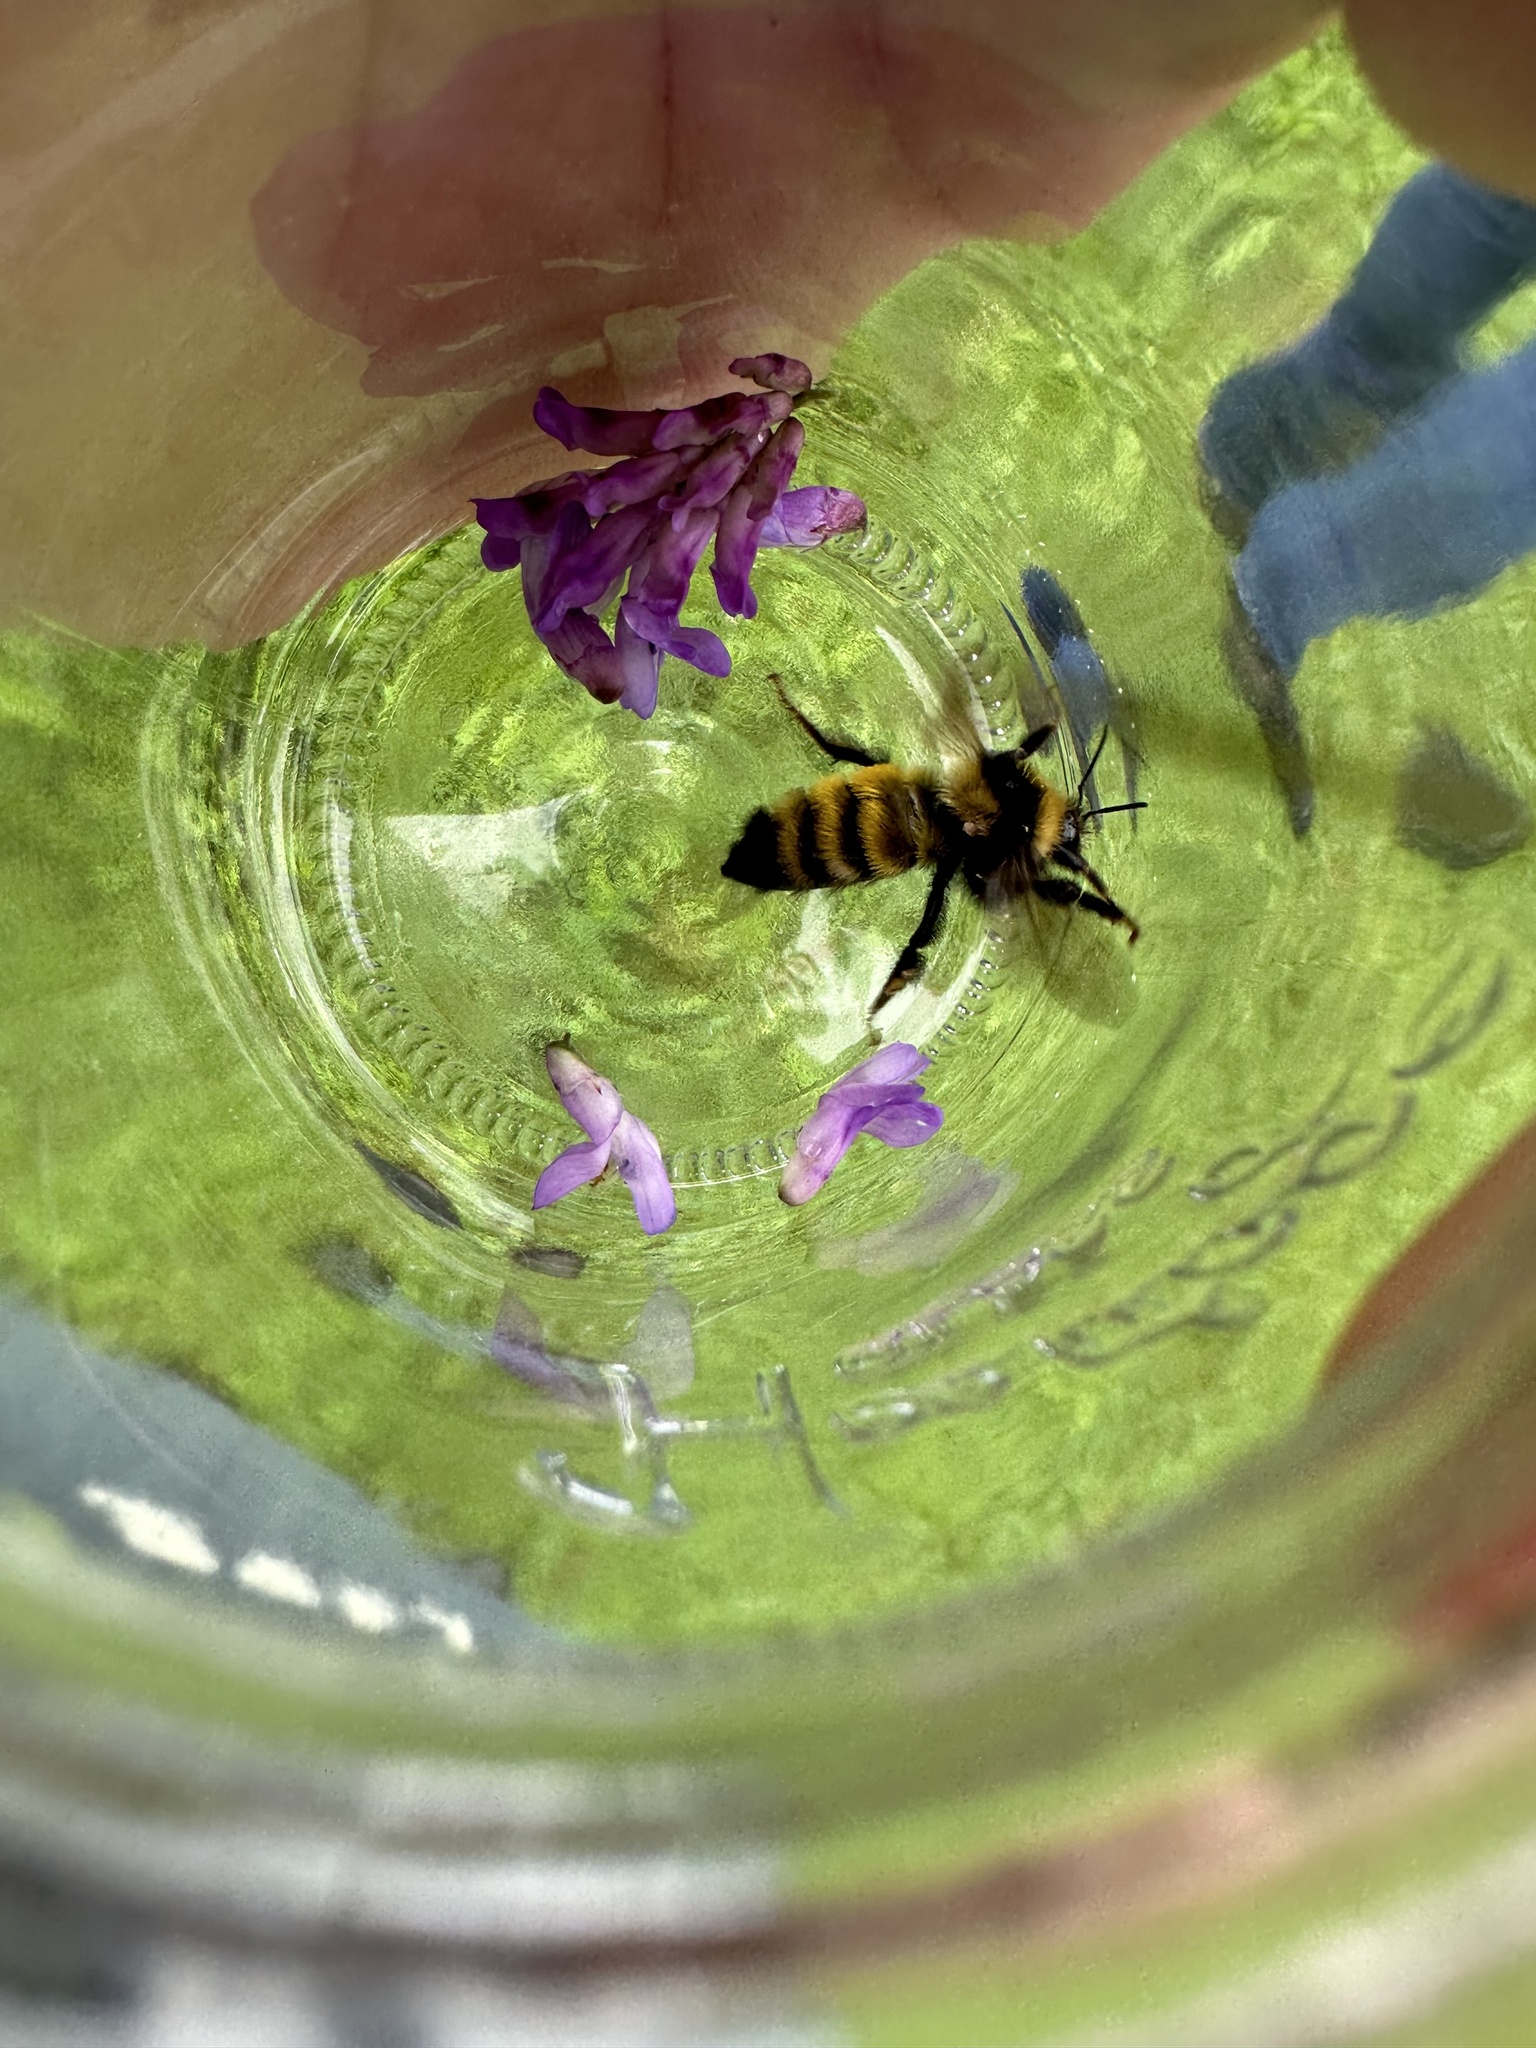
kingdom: Animalia
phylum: Arthropoda
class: Insecta
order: Hymenoptera
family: Apidae
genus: Bombus
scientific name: Bombus borealis
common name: Northern amber bumble bee
